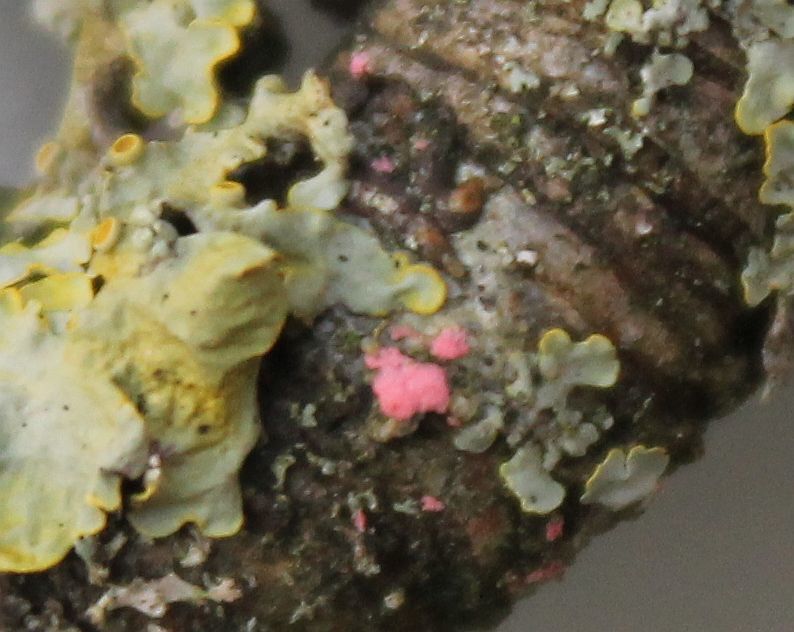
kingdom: Fungi
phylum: Ascomycota
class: Sordariomycetes
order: Hypocreales
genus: Illosporiopsis
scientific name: Illosporiopsis christiansenii
